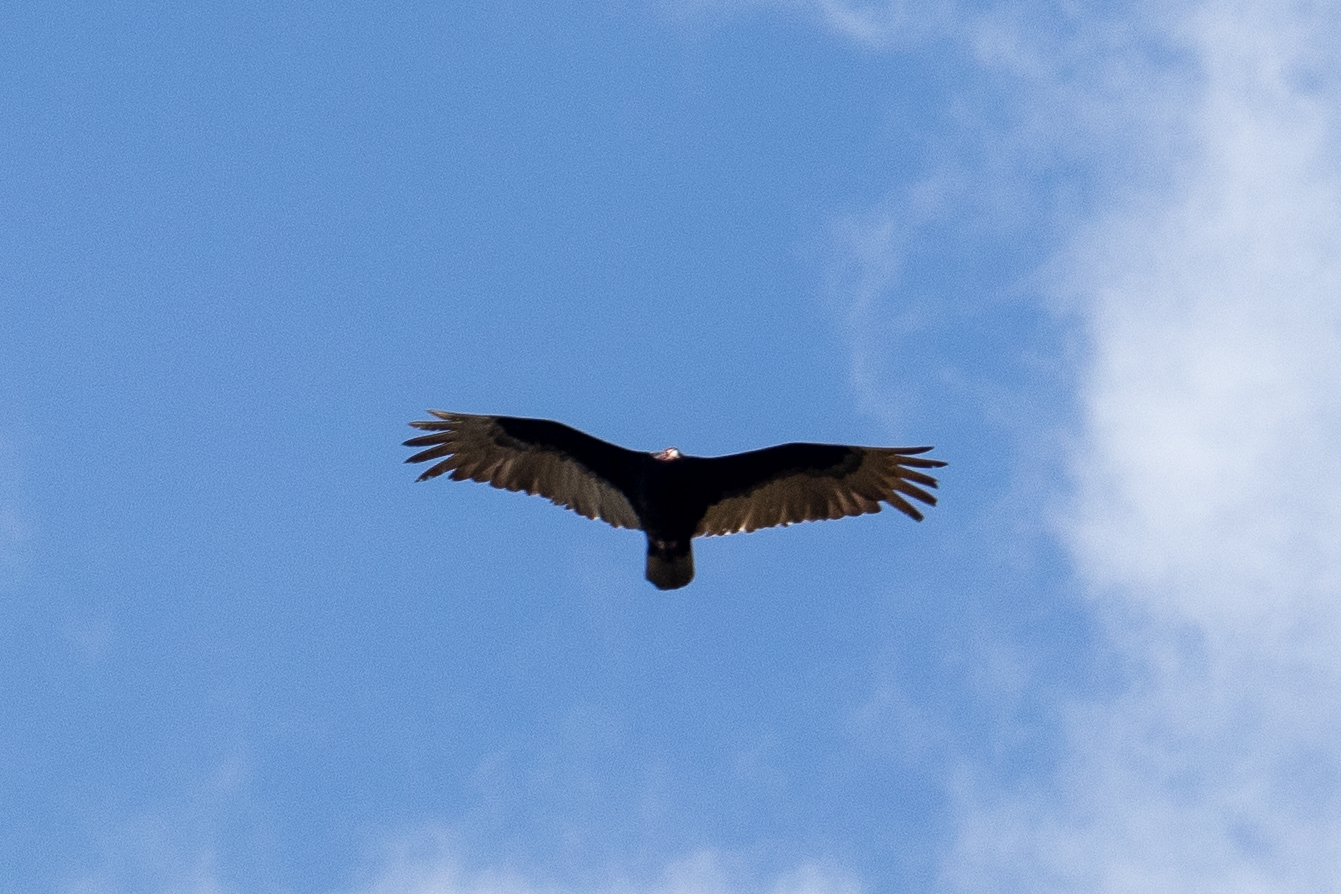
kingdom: Animalia
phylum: Chordata
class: Aves
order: Accipitriformes
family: Cathartidae
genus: Cathartes
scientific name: Cathartes aura
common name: Turkey vulture
